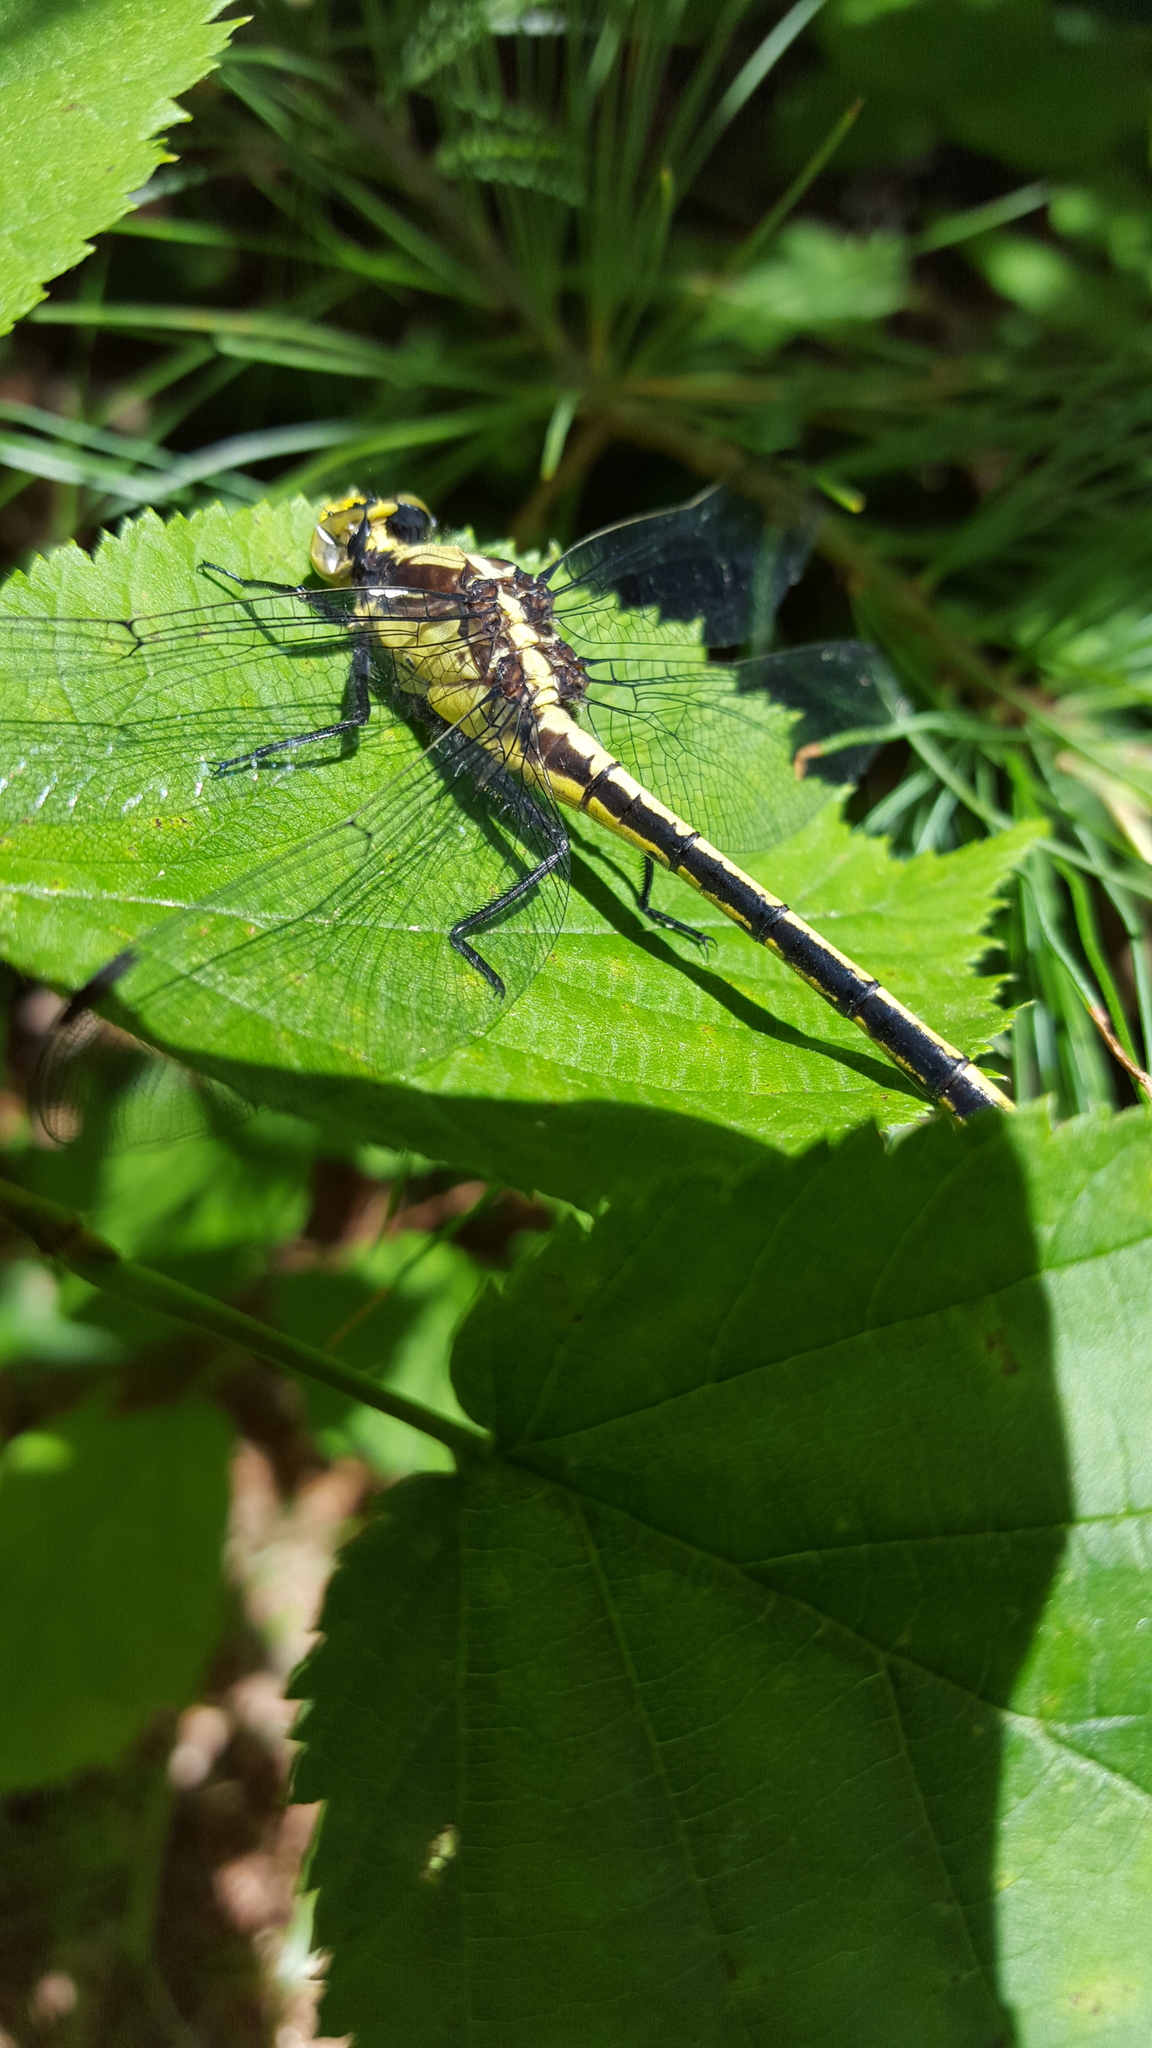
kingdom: Animalia
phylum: Arthropoda
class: Insecta
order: Odonata
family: Gomphidae
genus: Dromogomphus
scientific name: Dromogomphus spinosus
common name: Black-shouldered spinyleg
